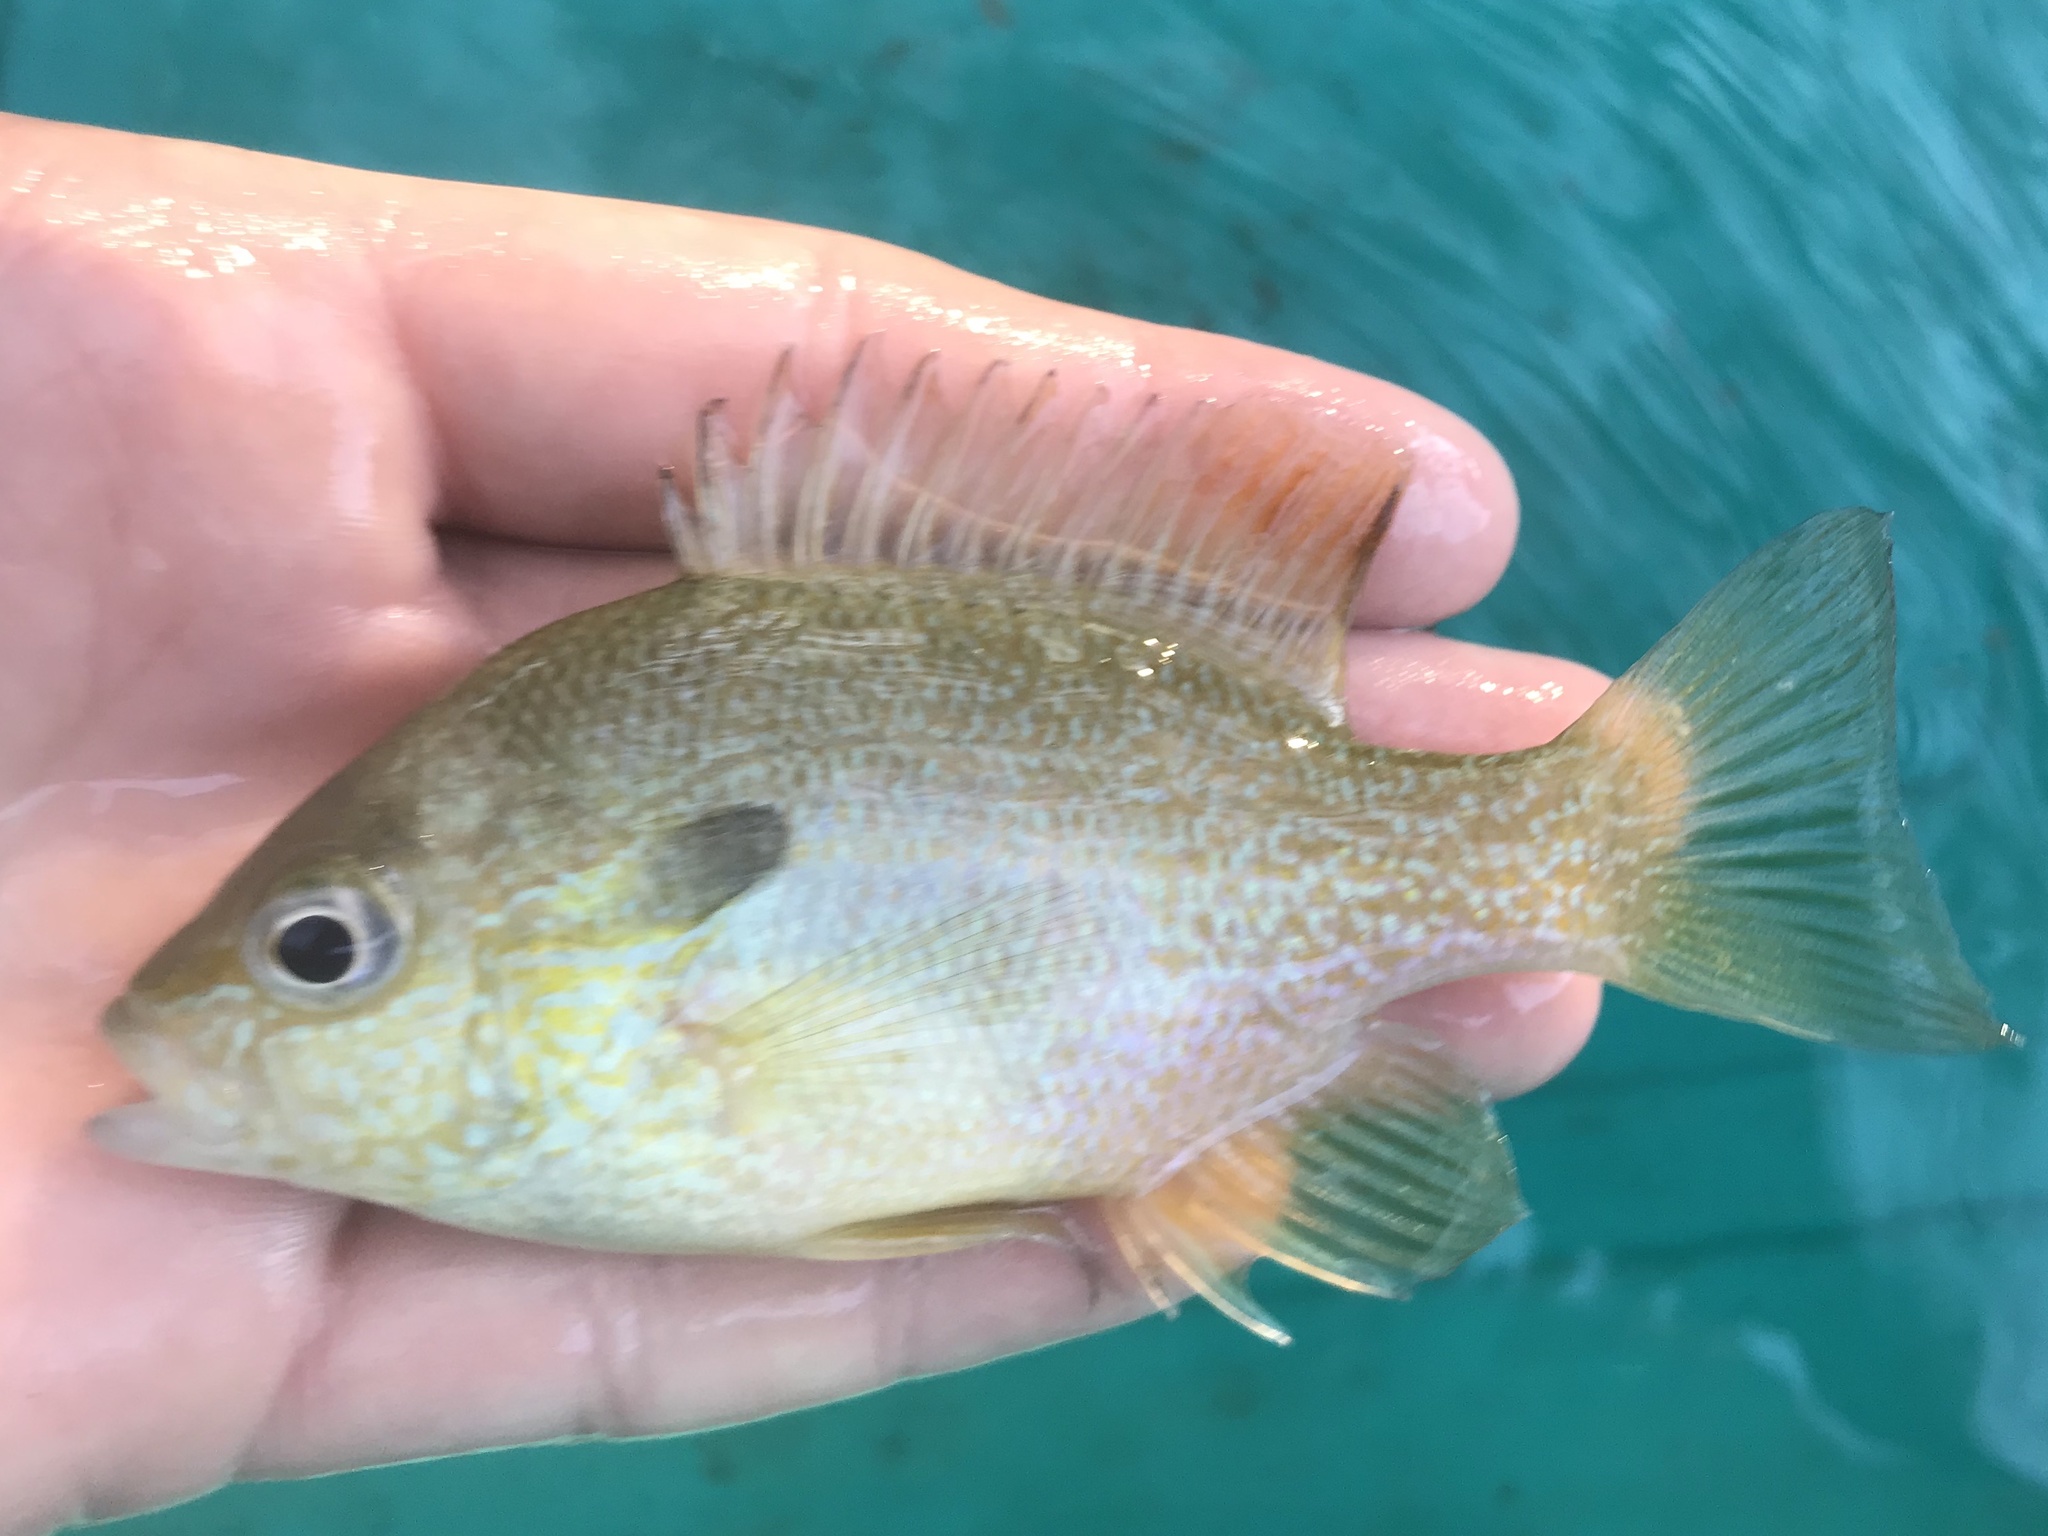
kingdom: Animalia
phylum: Chordata
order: Perciformes
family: Centrarchidae
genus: Lepomis
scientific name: Lepomis auritus
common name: Redbreast sunfish
